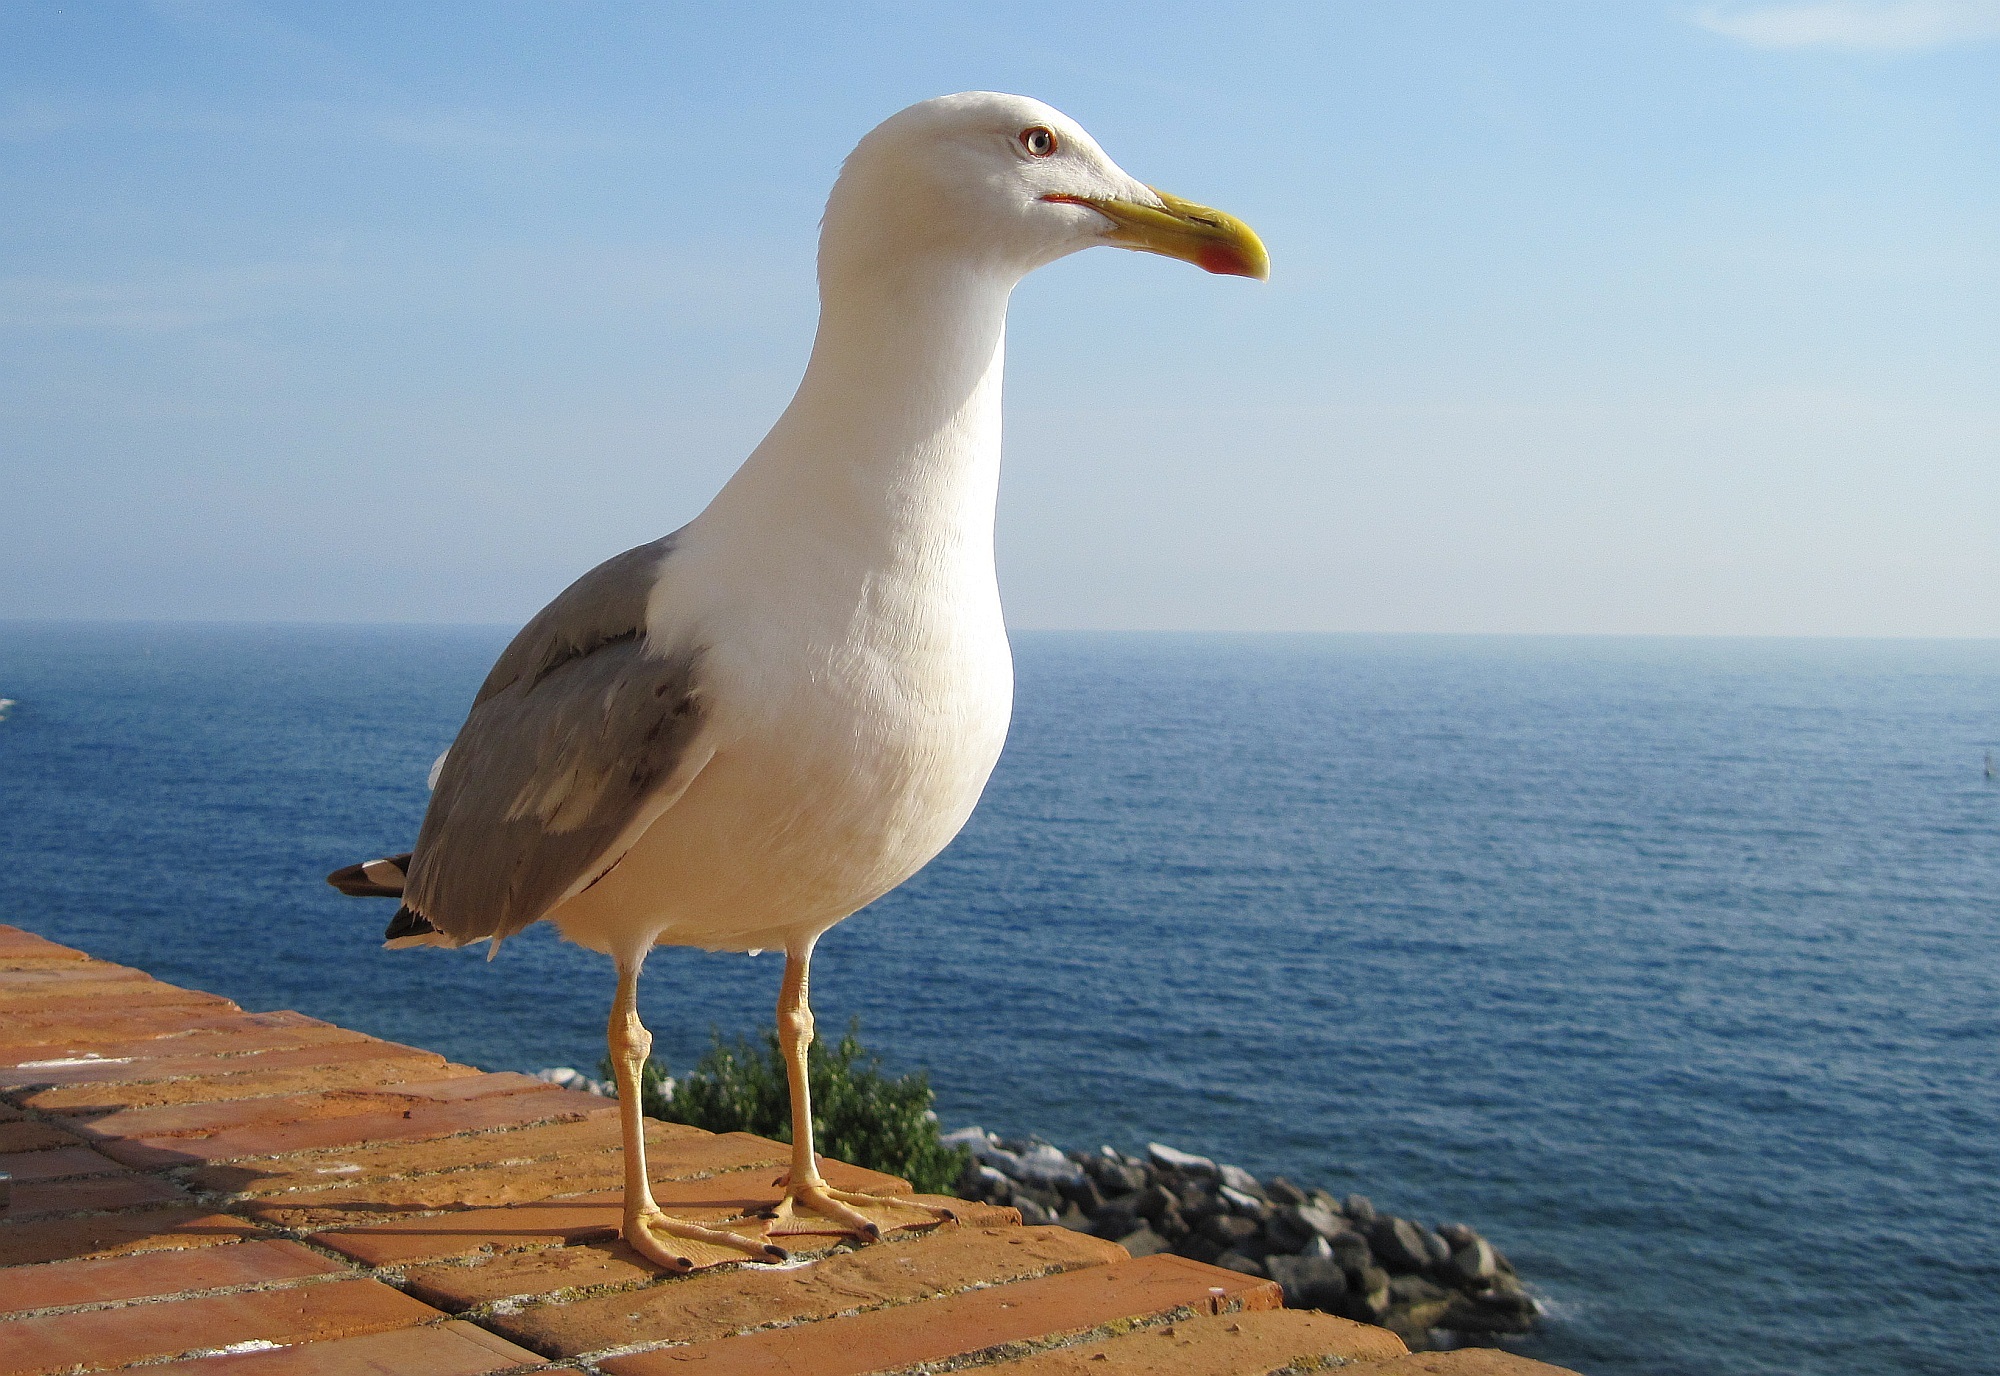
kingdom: Animalia
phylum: Chordata
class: Aves
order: Charadriiformes
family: Laridae
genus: Larus
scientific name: Larus michahellis
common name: Yellow-legged gull
